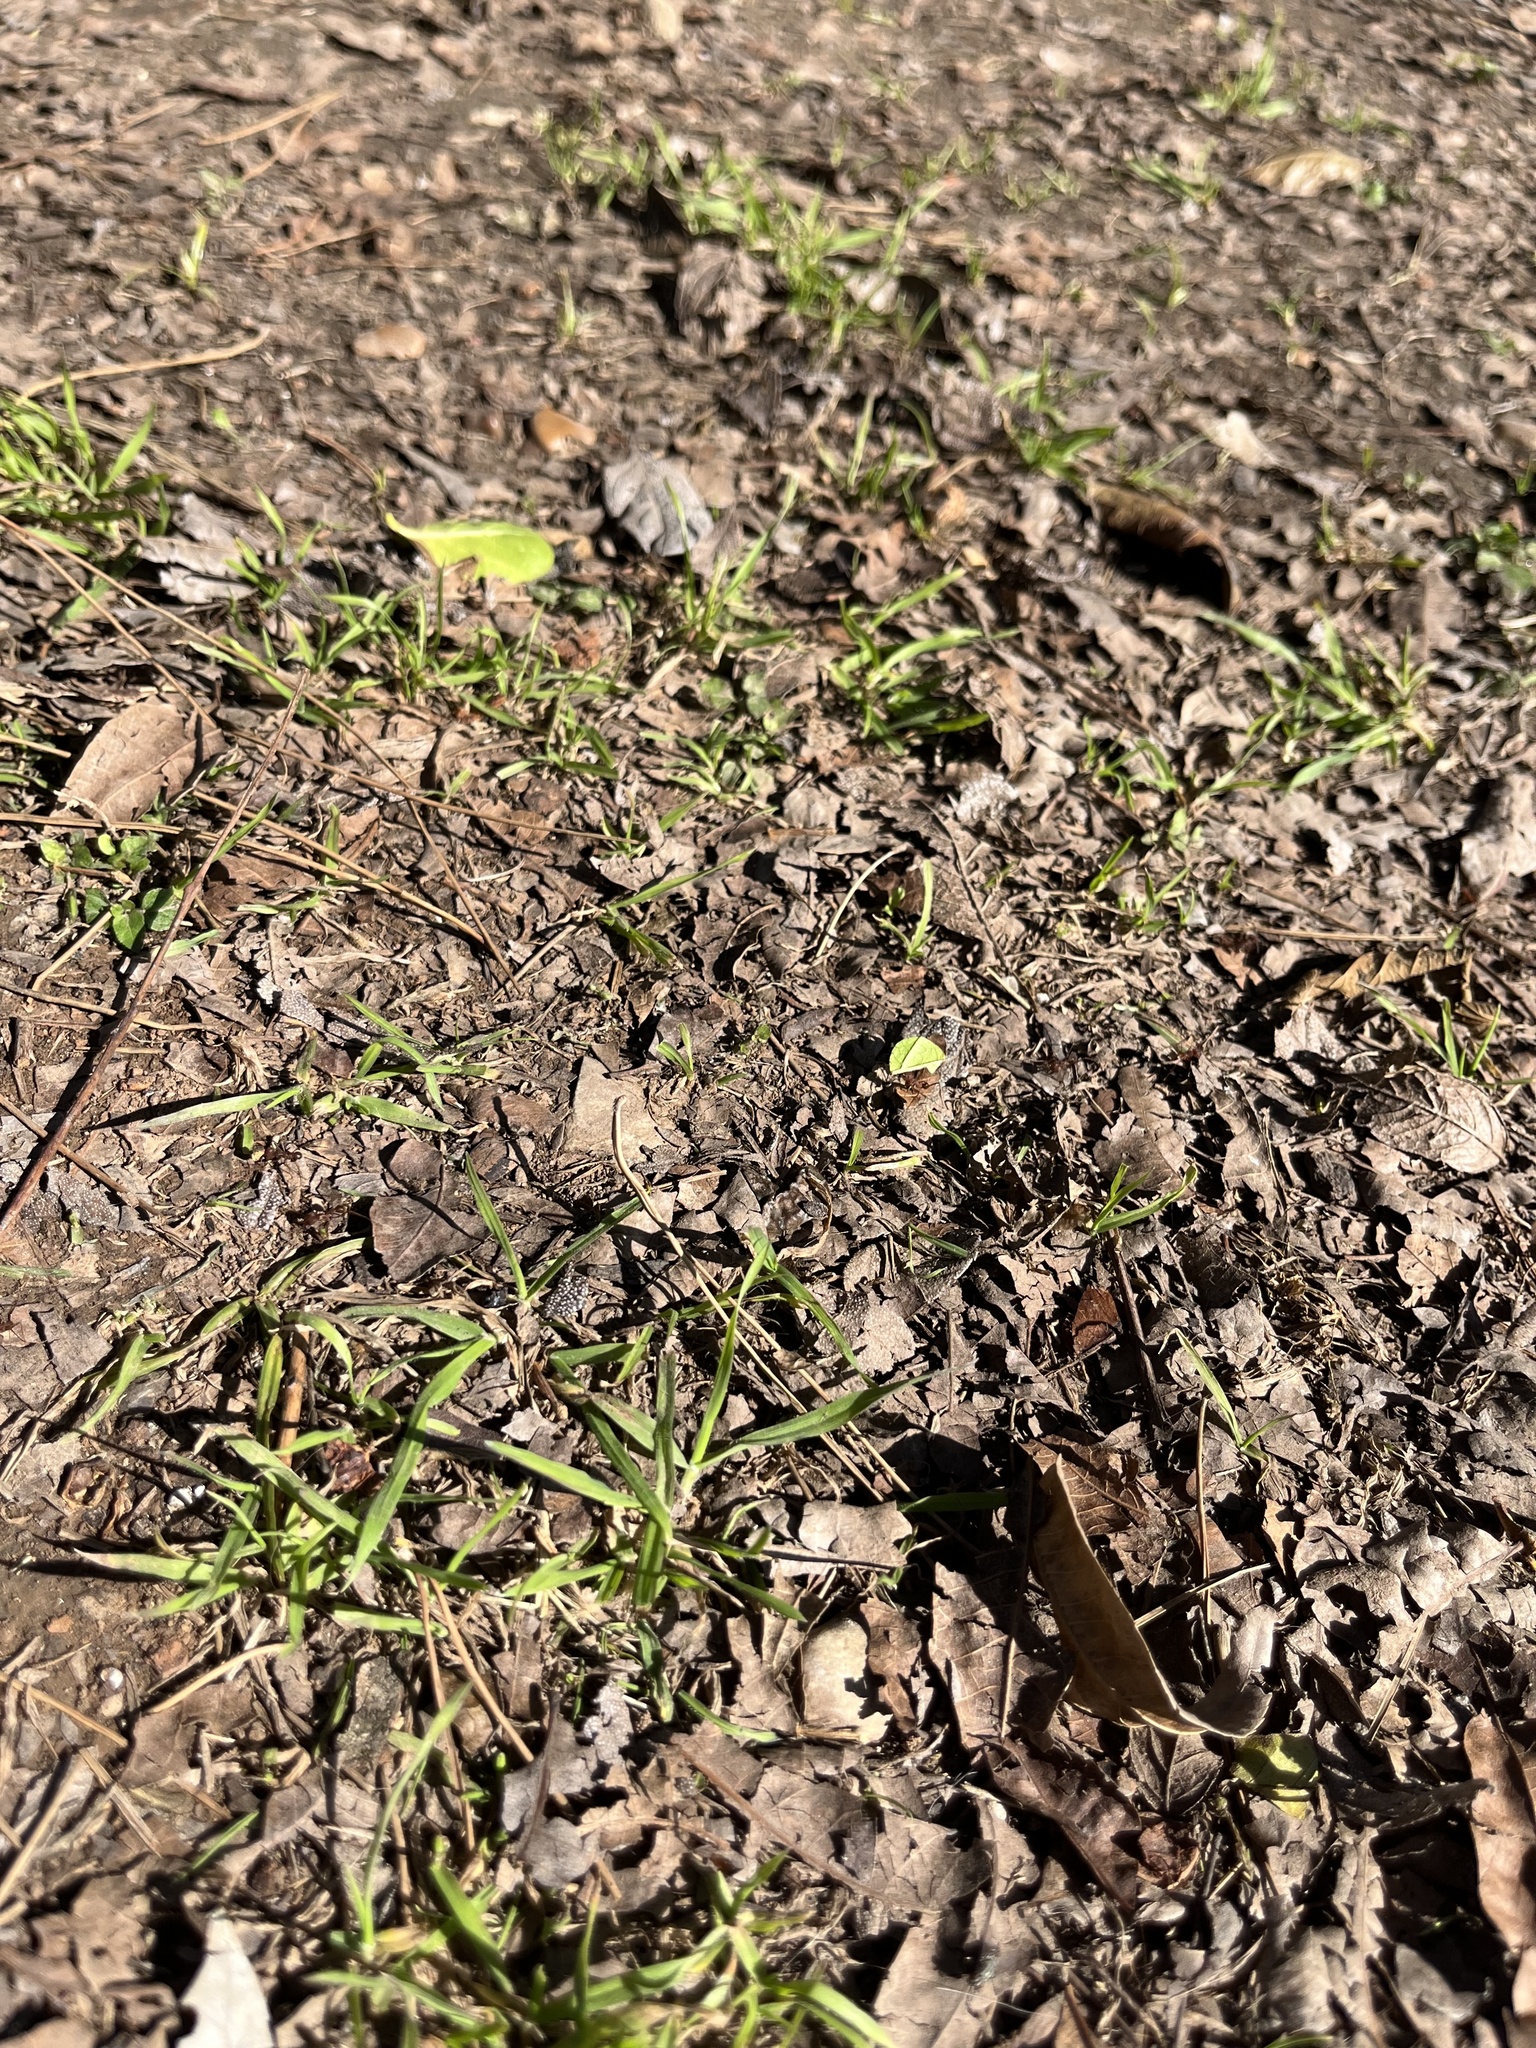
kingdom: Animalia
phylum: Arthropoda
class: Insecta
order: Hymenoptera
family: Formicidae
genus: Atta
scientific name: Atta texana
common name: Texas leafcutting ant
